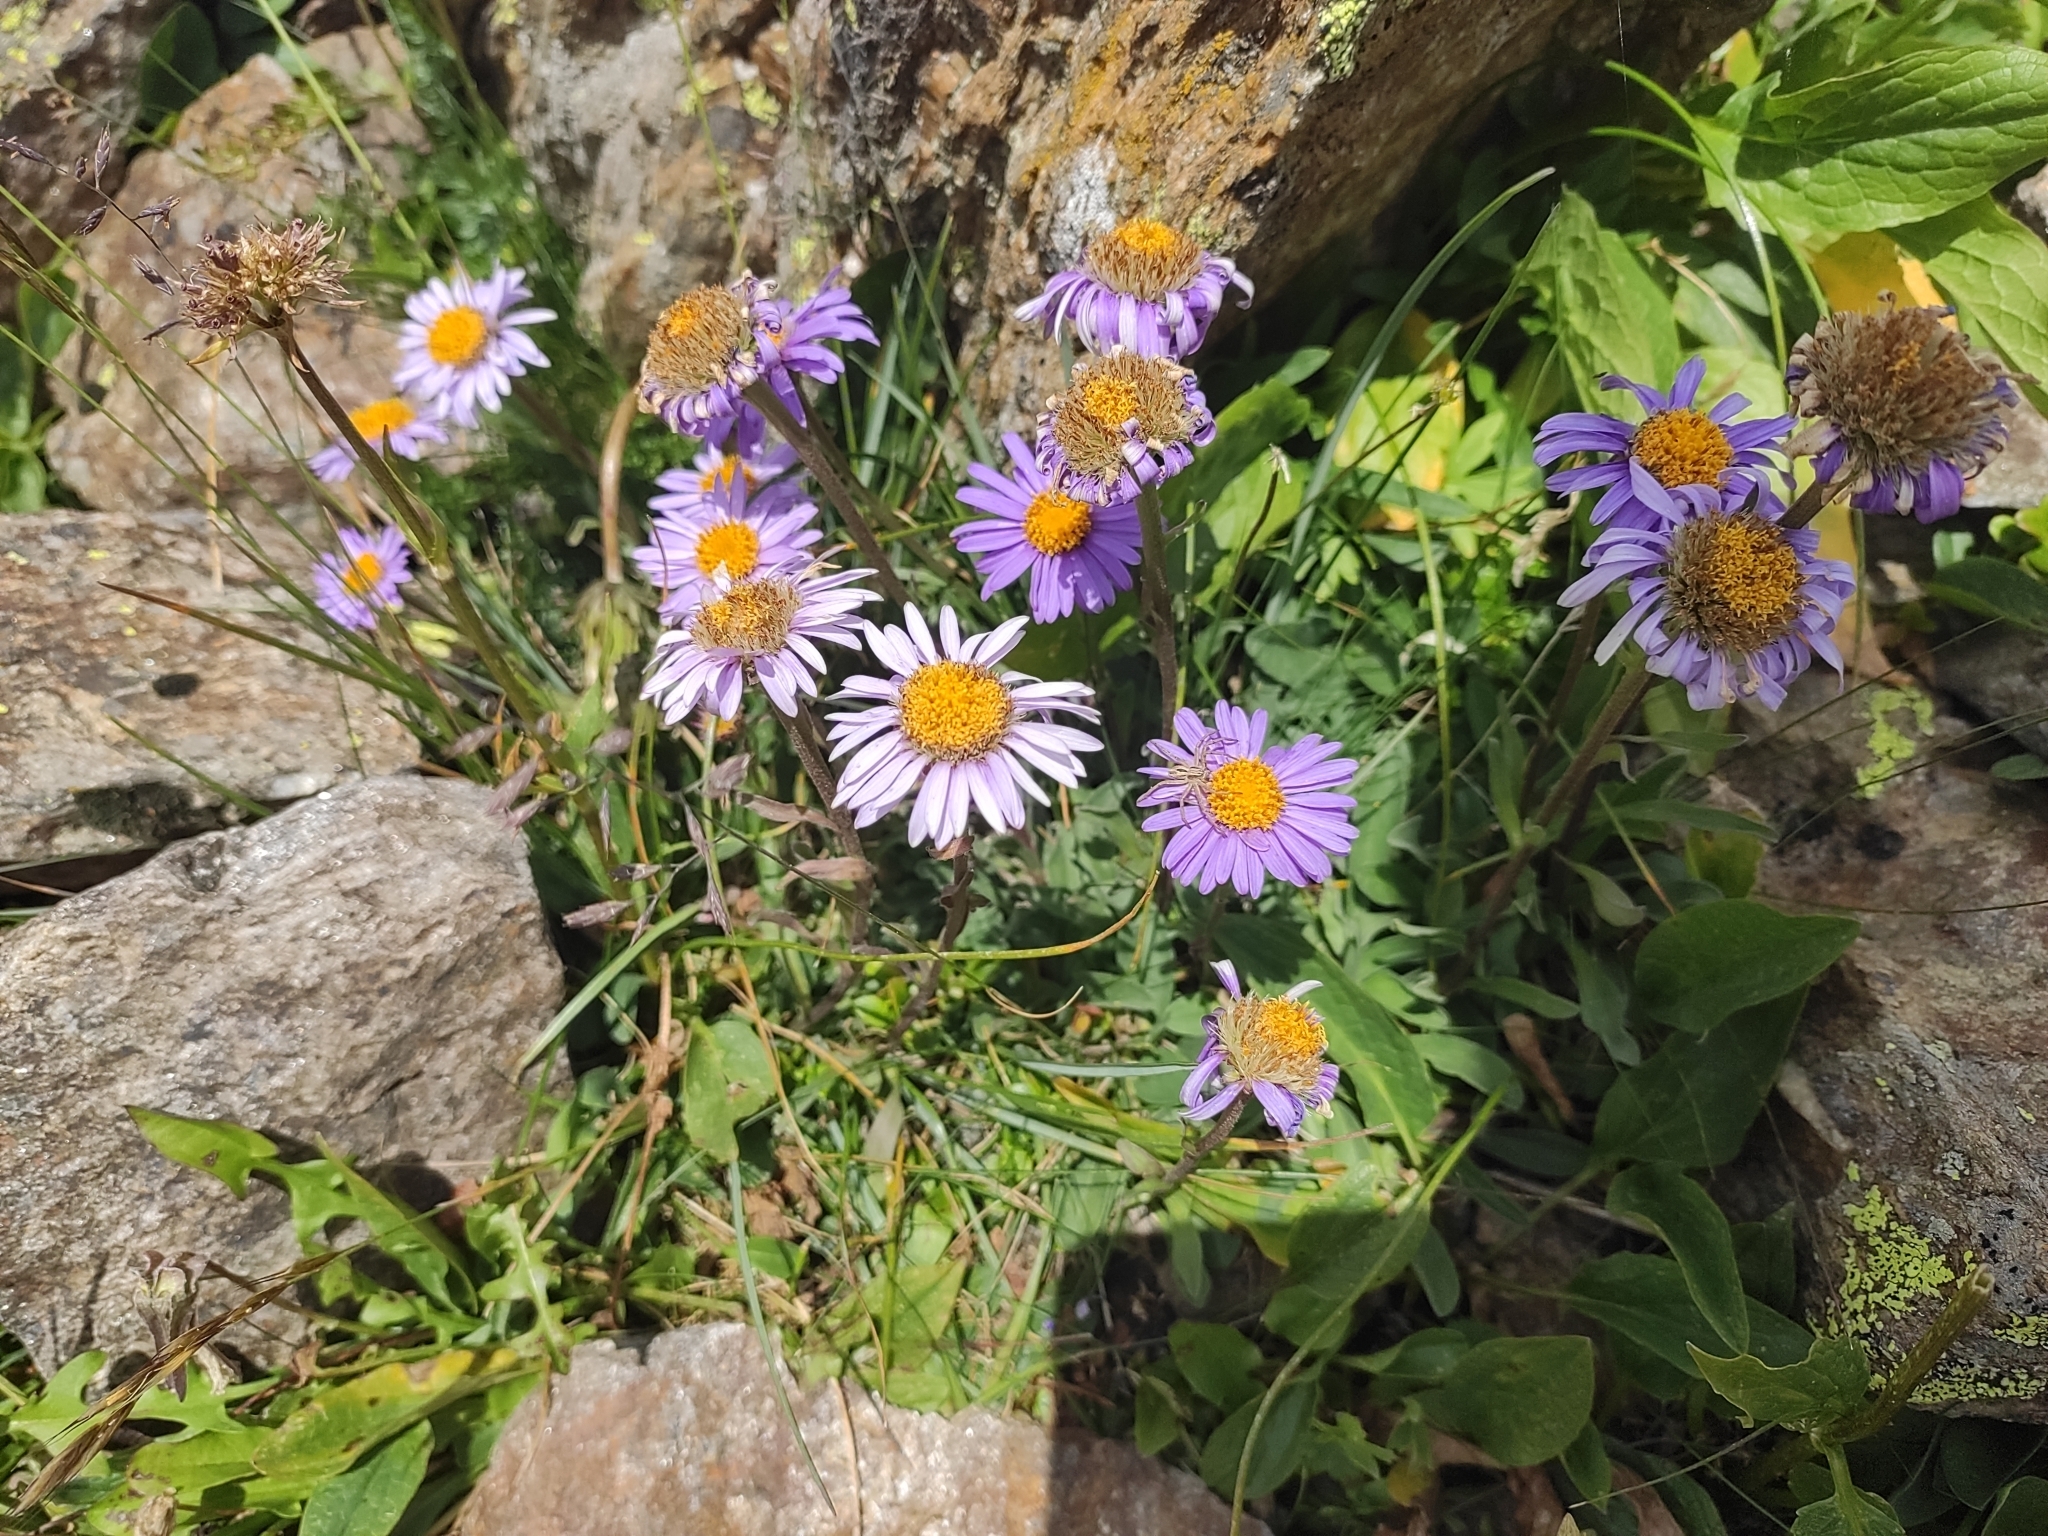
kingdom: Plantae
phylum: Tracheophyta
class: Magnoliopsida
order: Asterales
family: Asteraceae
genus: Aster
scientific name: Aster alpinus
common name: Alpine aster
